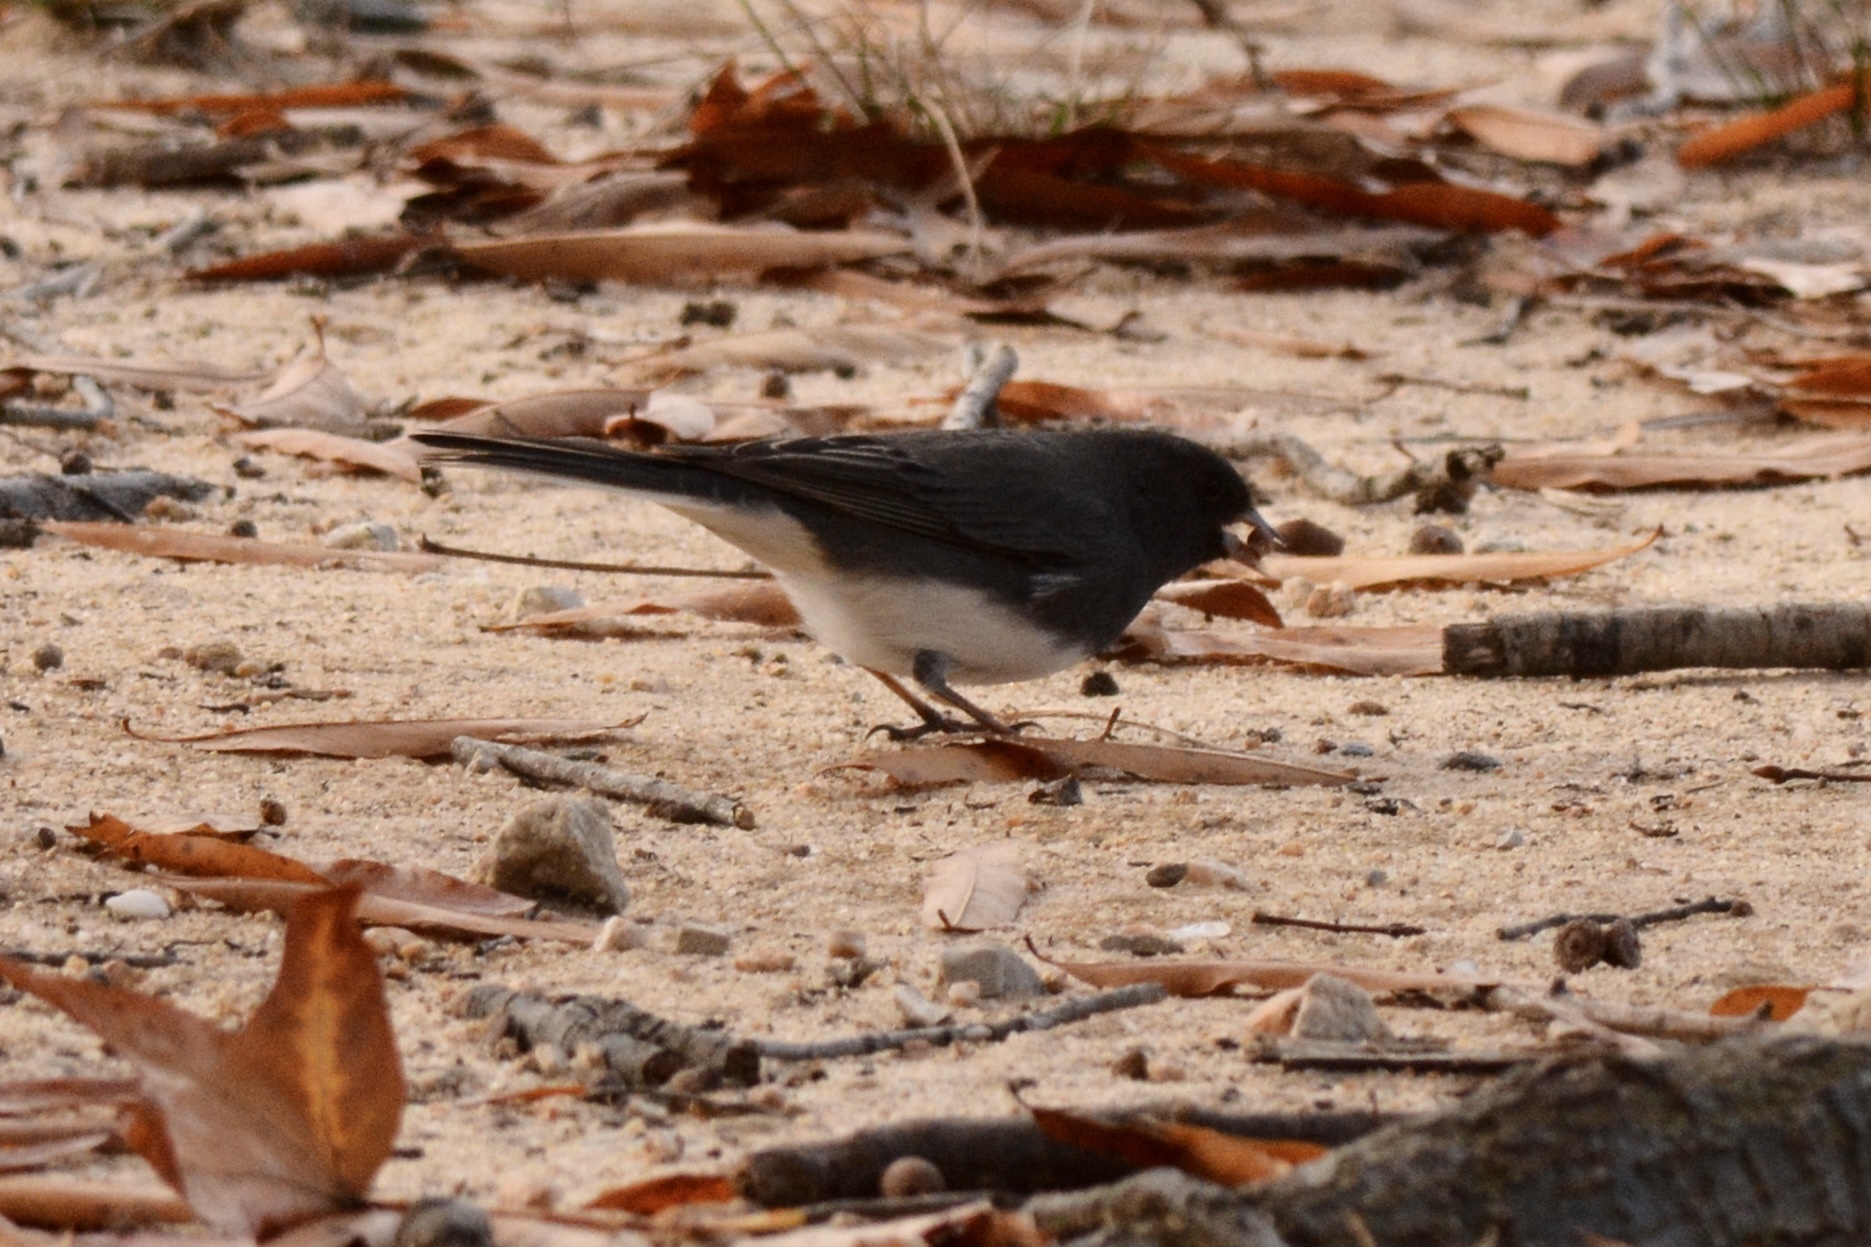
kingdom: Animalia
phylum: Chordata
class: Aves
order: Passeriformes
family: Passerellidae
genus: Junco
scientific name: Junco hyemalis
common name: Dark-eyed junco
